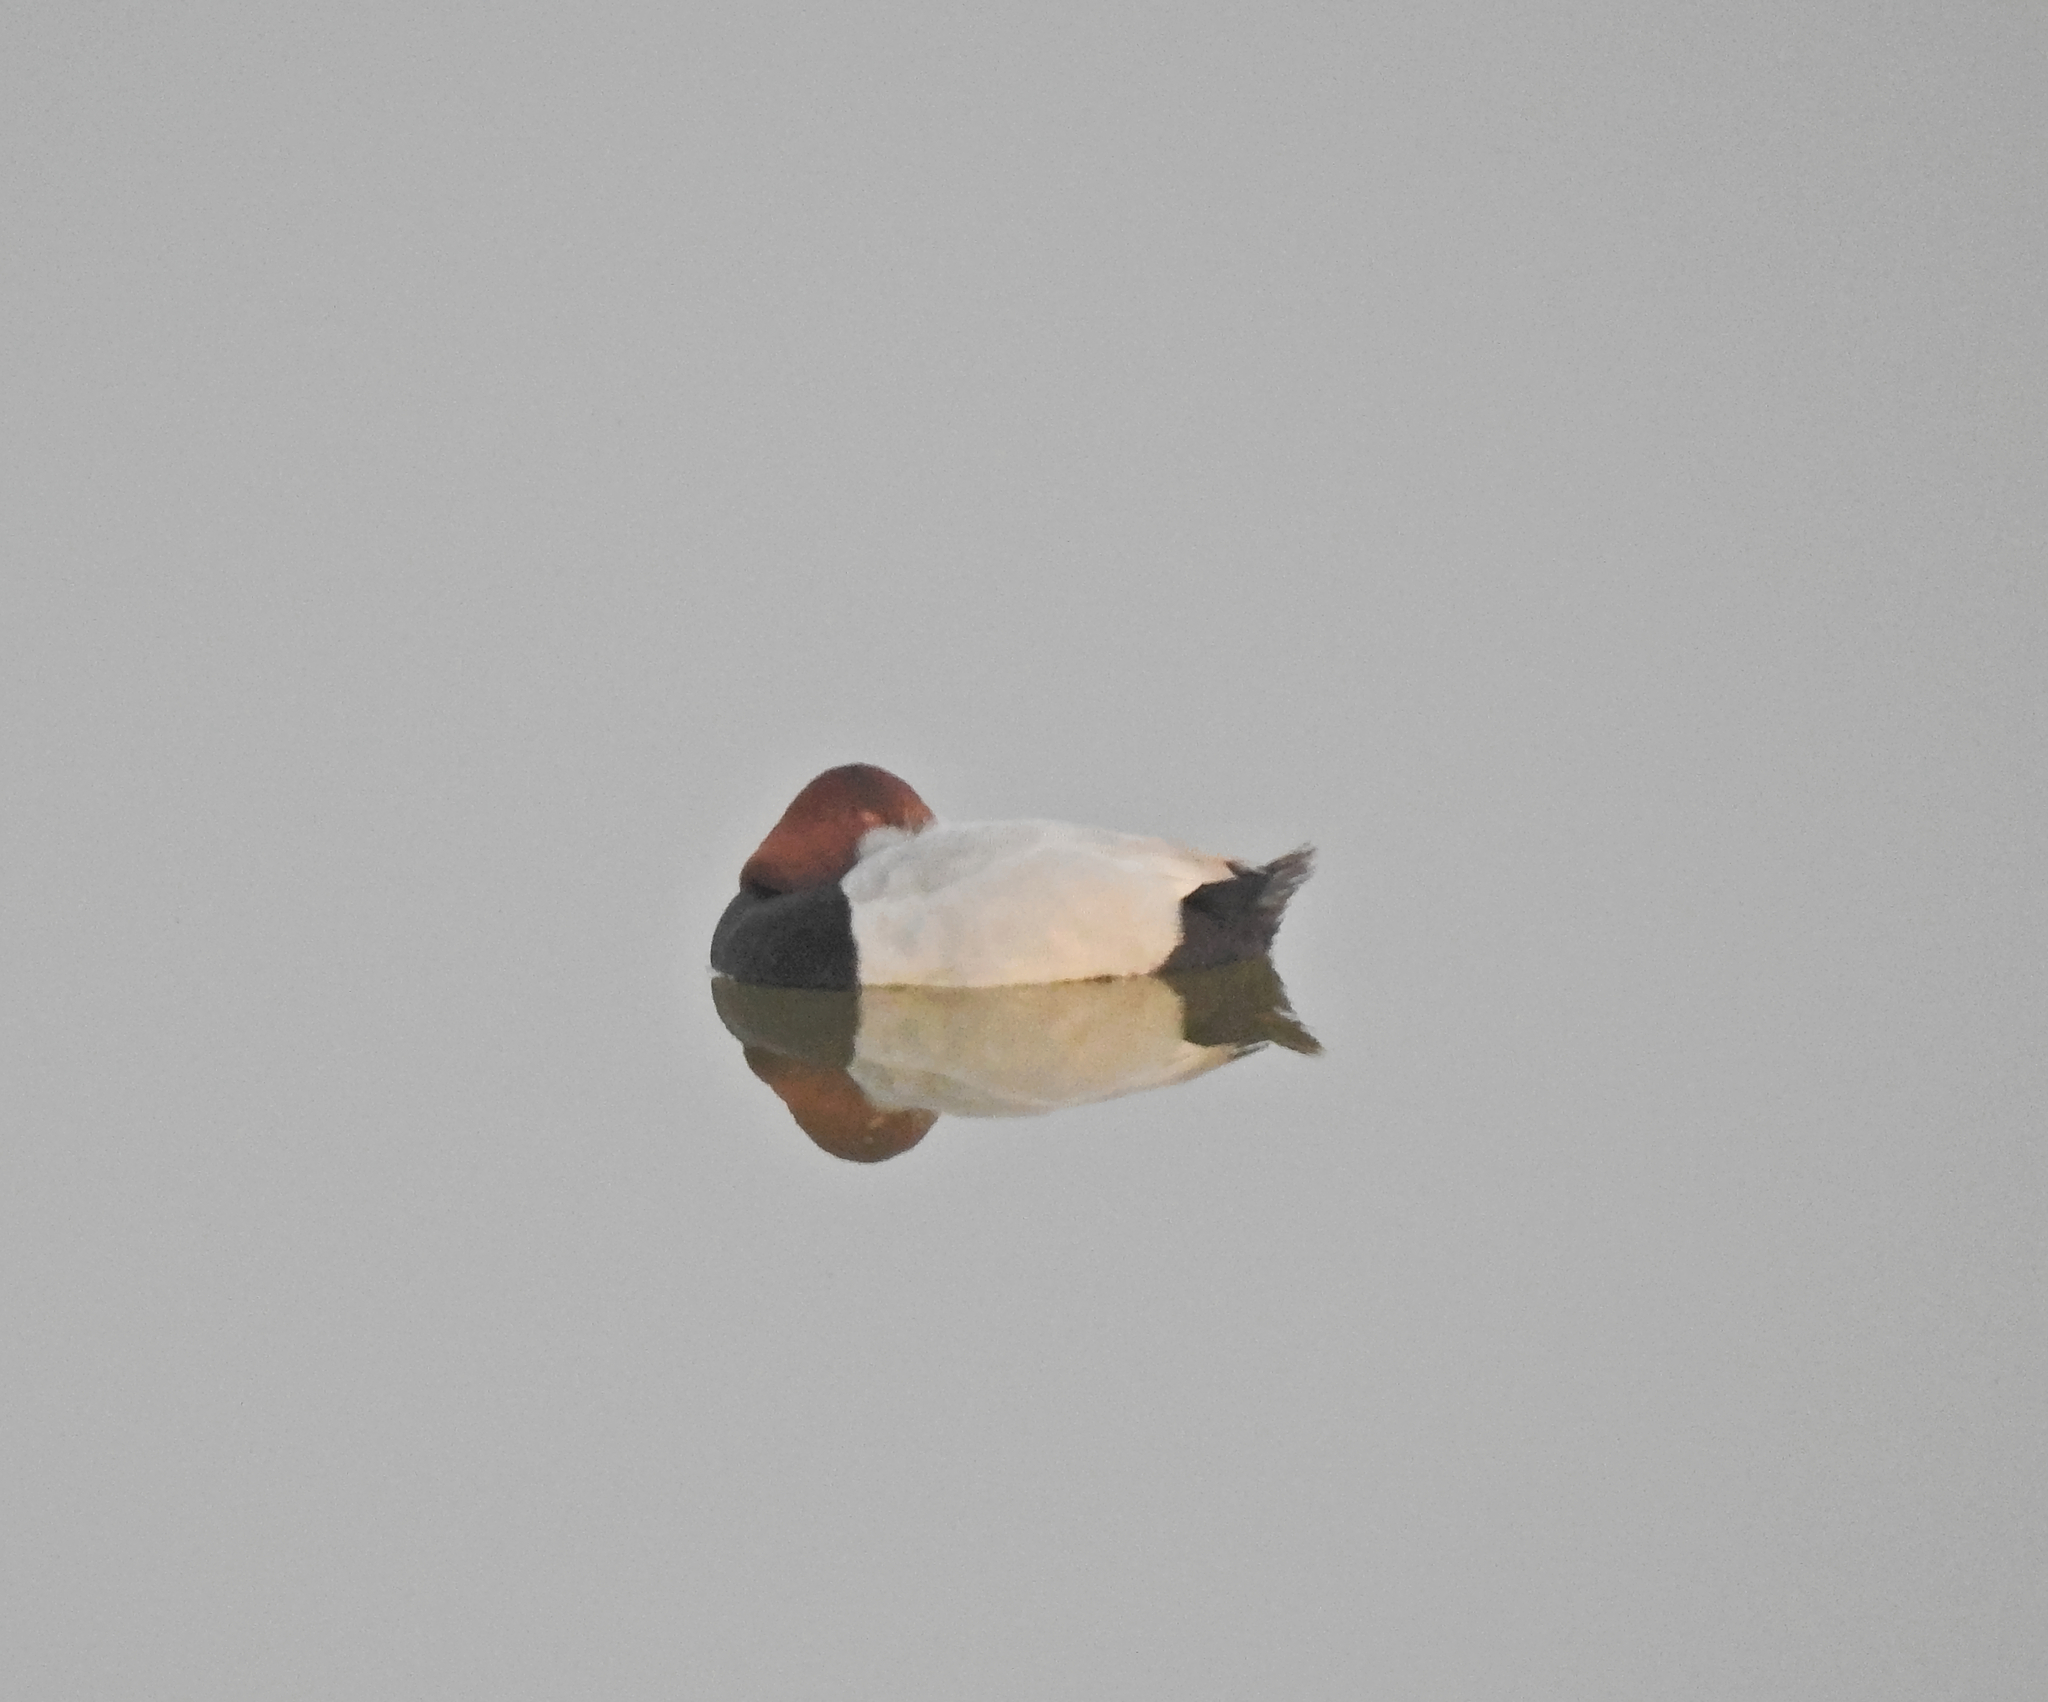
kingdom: Animalia
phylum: Chordata
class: Aves
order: Anseriformes
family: Anatidae
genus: Aythya
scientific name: Aythya ferina
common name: Common pochard
